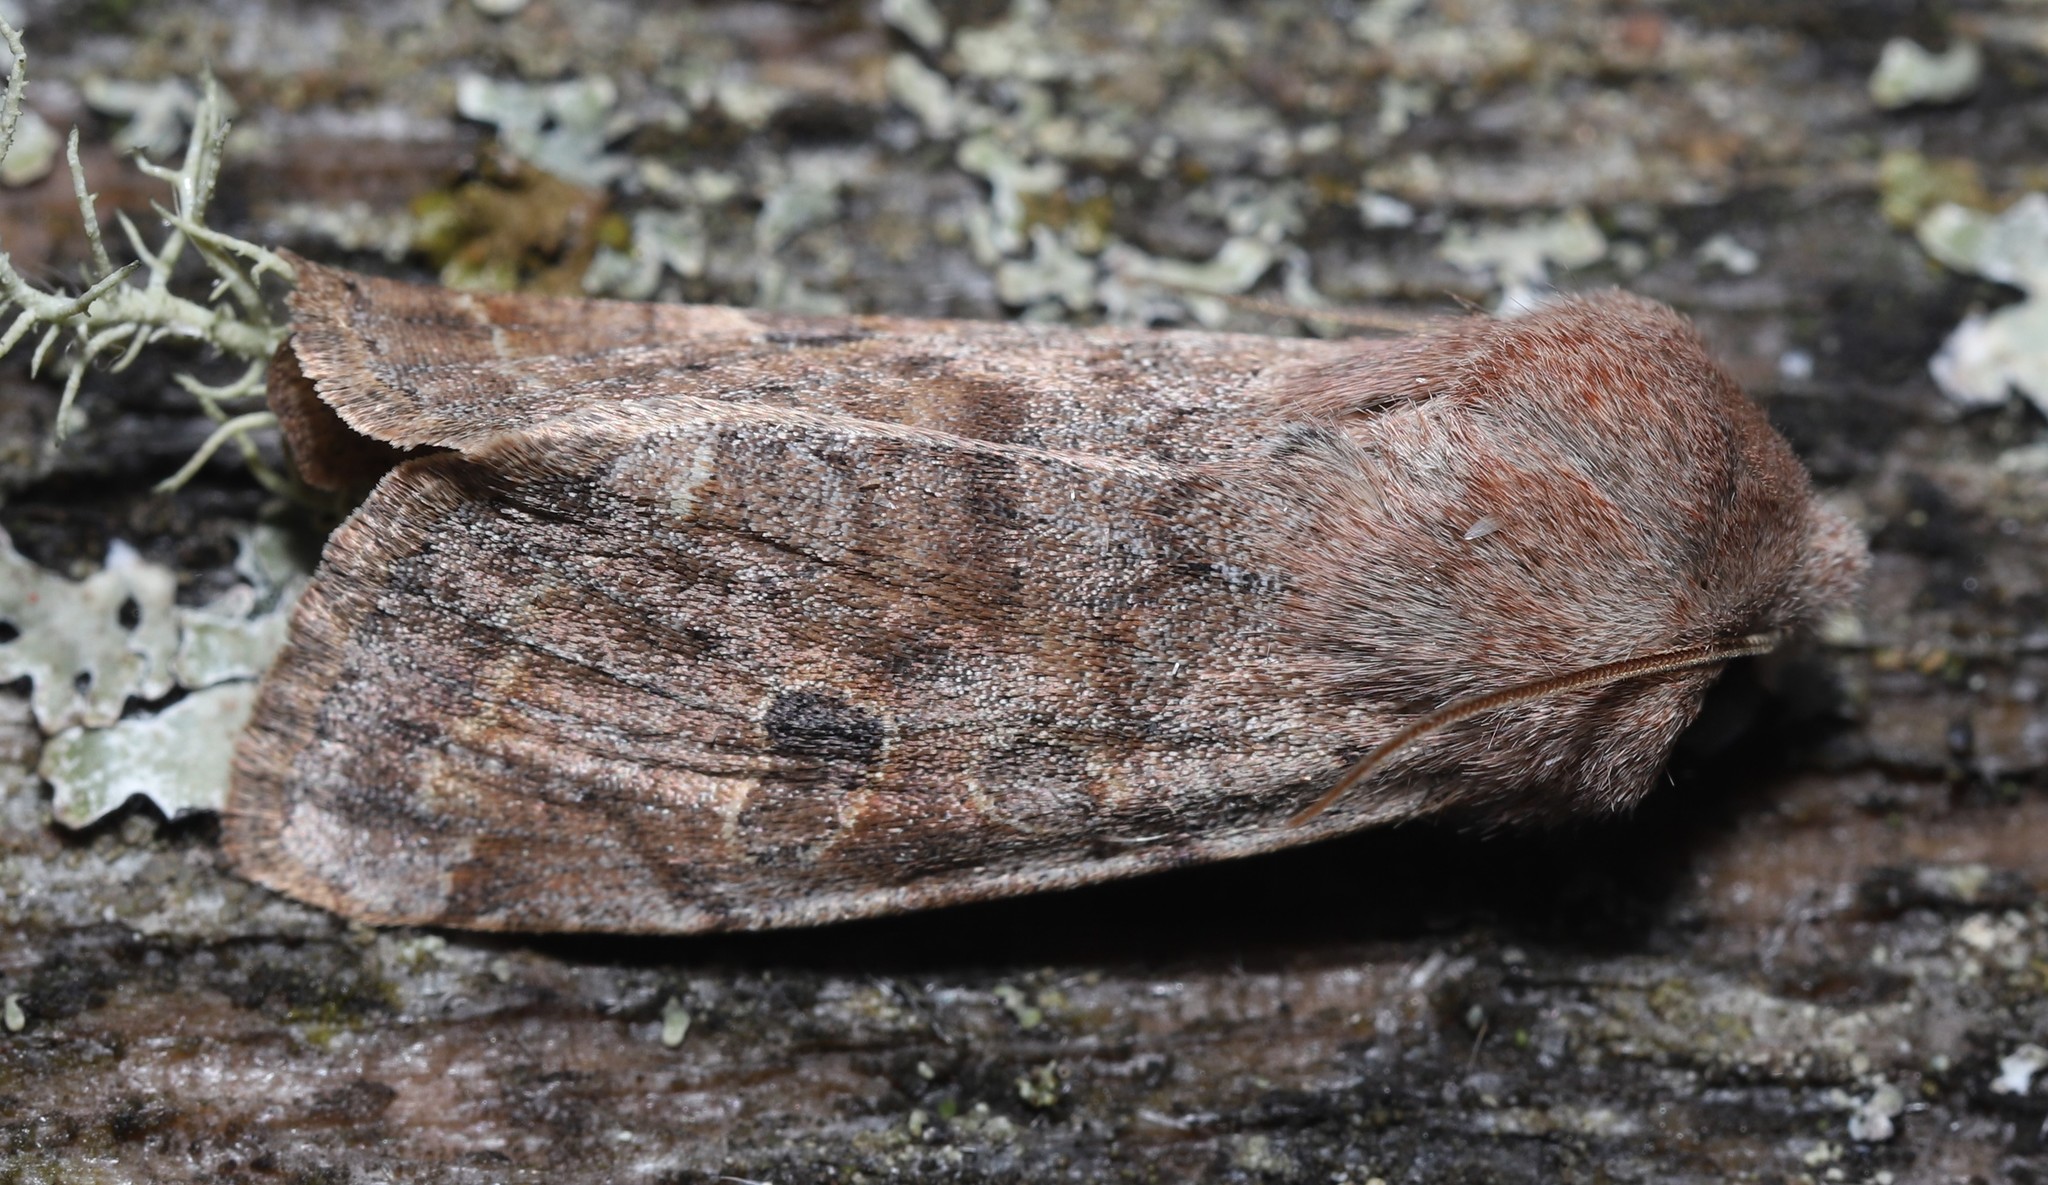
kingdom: Animalia
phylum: Arthropoda
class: Insecta
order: Lepidoptera
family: Noctuidae
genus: Orthosia
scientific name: Orthosia hibisci
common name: Green fruitworm
